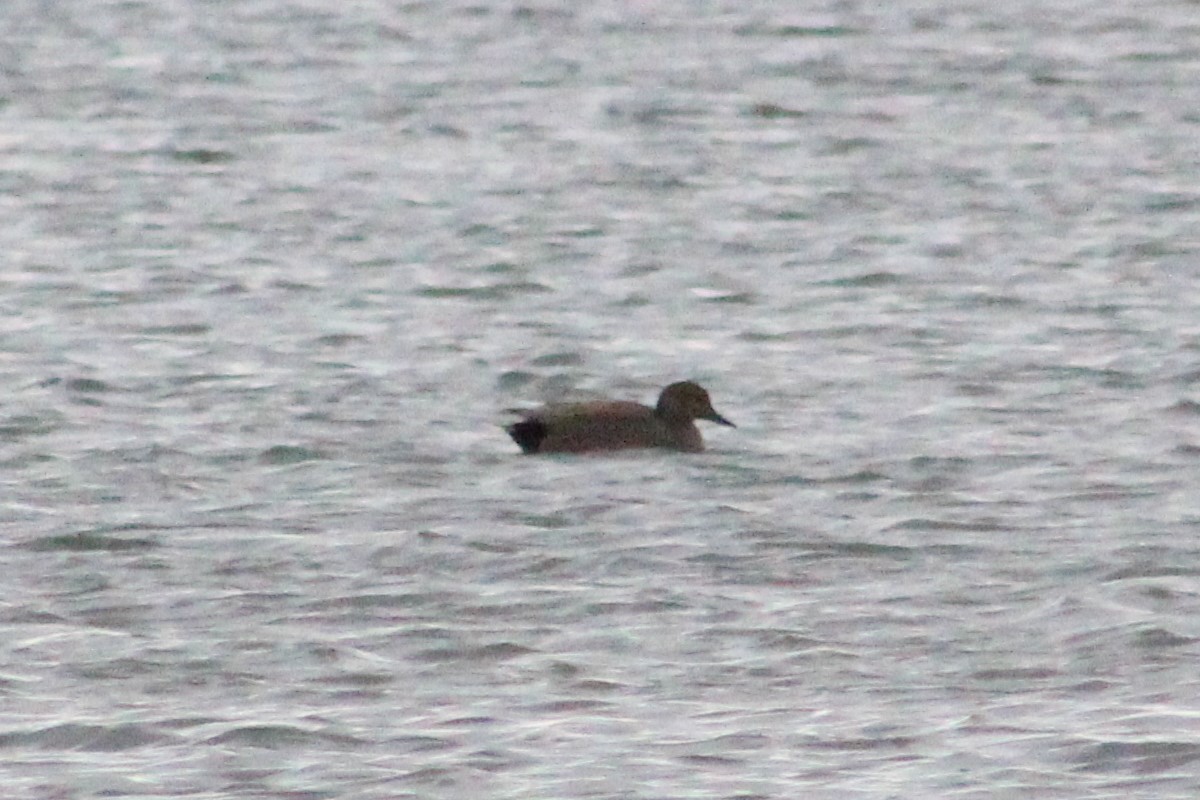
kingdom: Animalia
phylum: Chordata
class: Aves
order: Anseriformes
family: Anatidae
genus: Mareca
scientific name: Mareca strepera
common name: Gadwall
